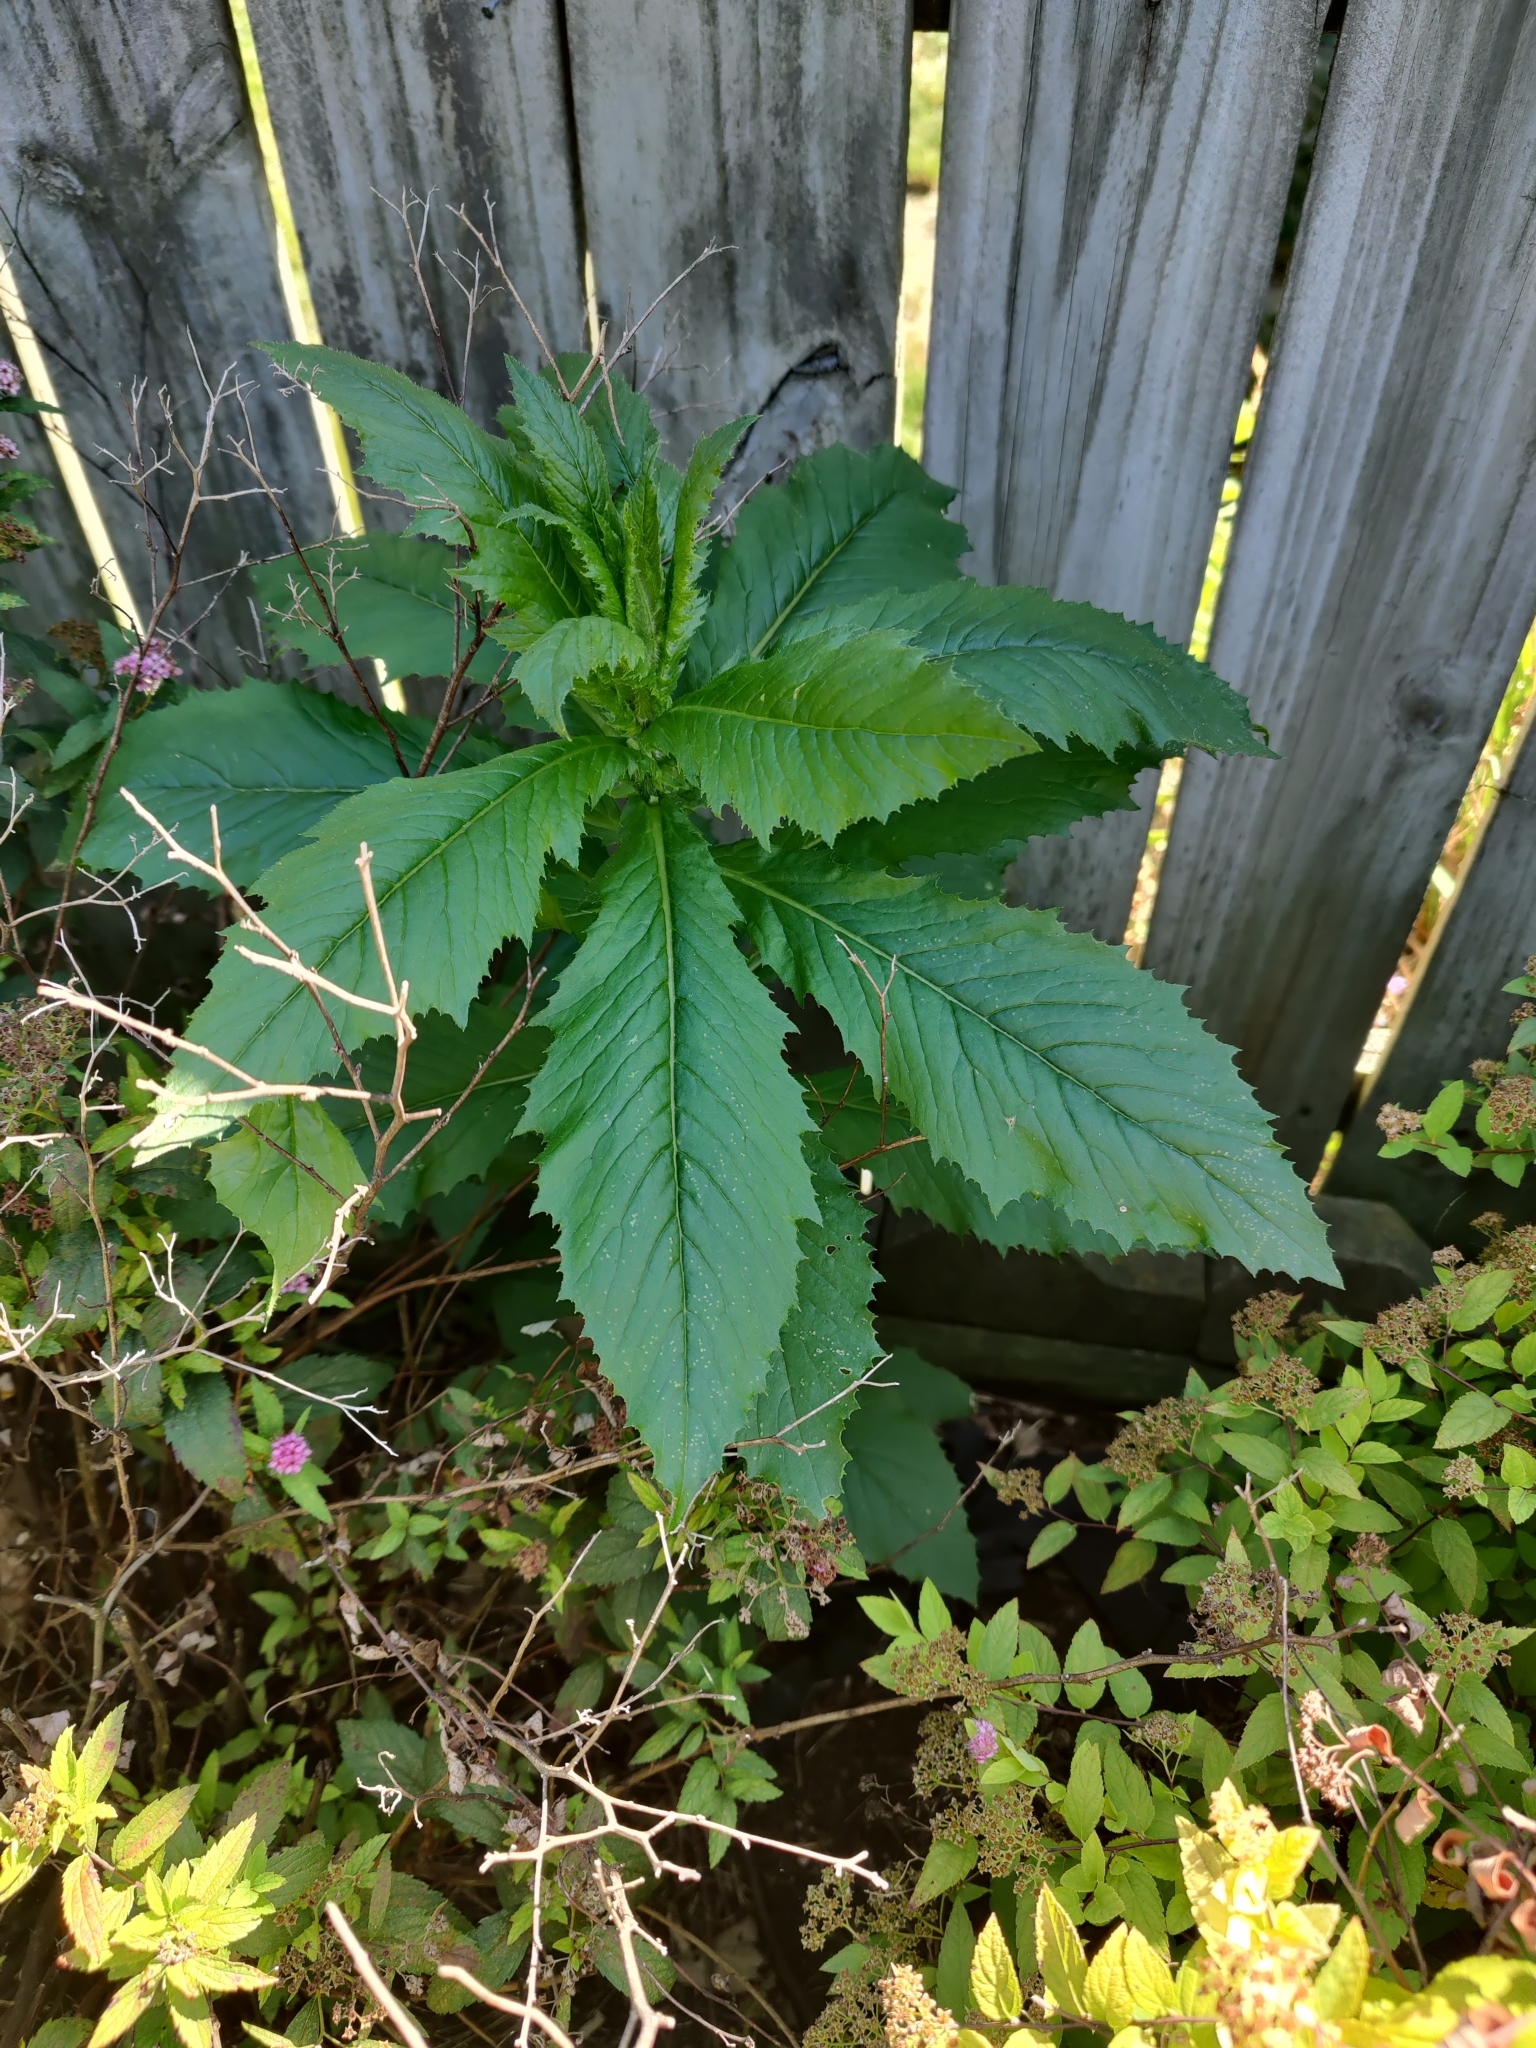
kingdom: Plantae
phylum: Tracheophyta
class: Magnoliopsida
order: Asterales
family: Asteraceae
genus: Erechtites
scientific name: Erechtites hieraciifolius
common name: American burnweed
